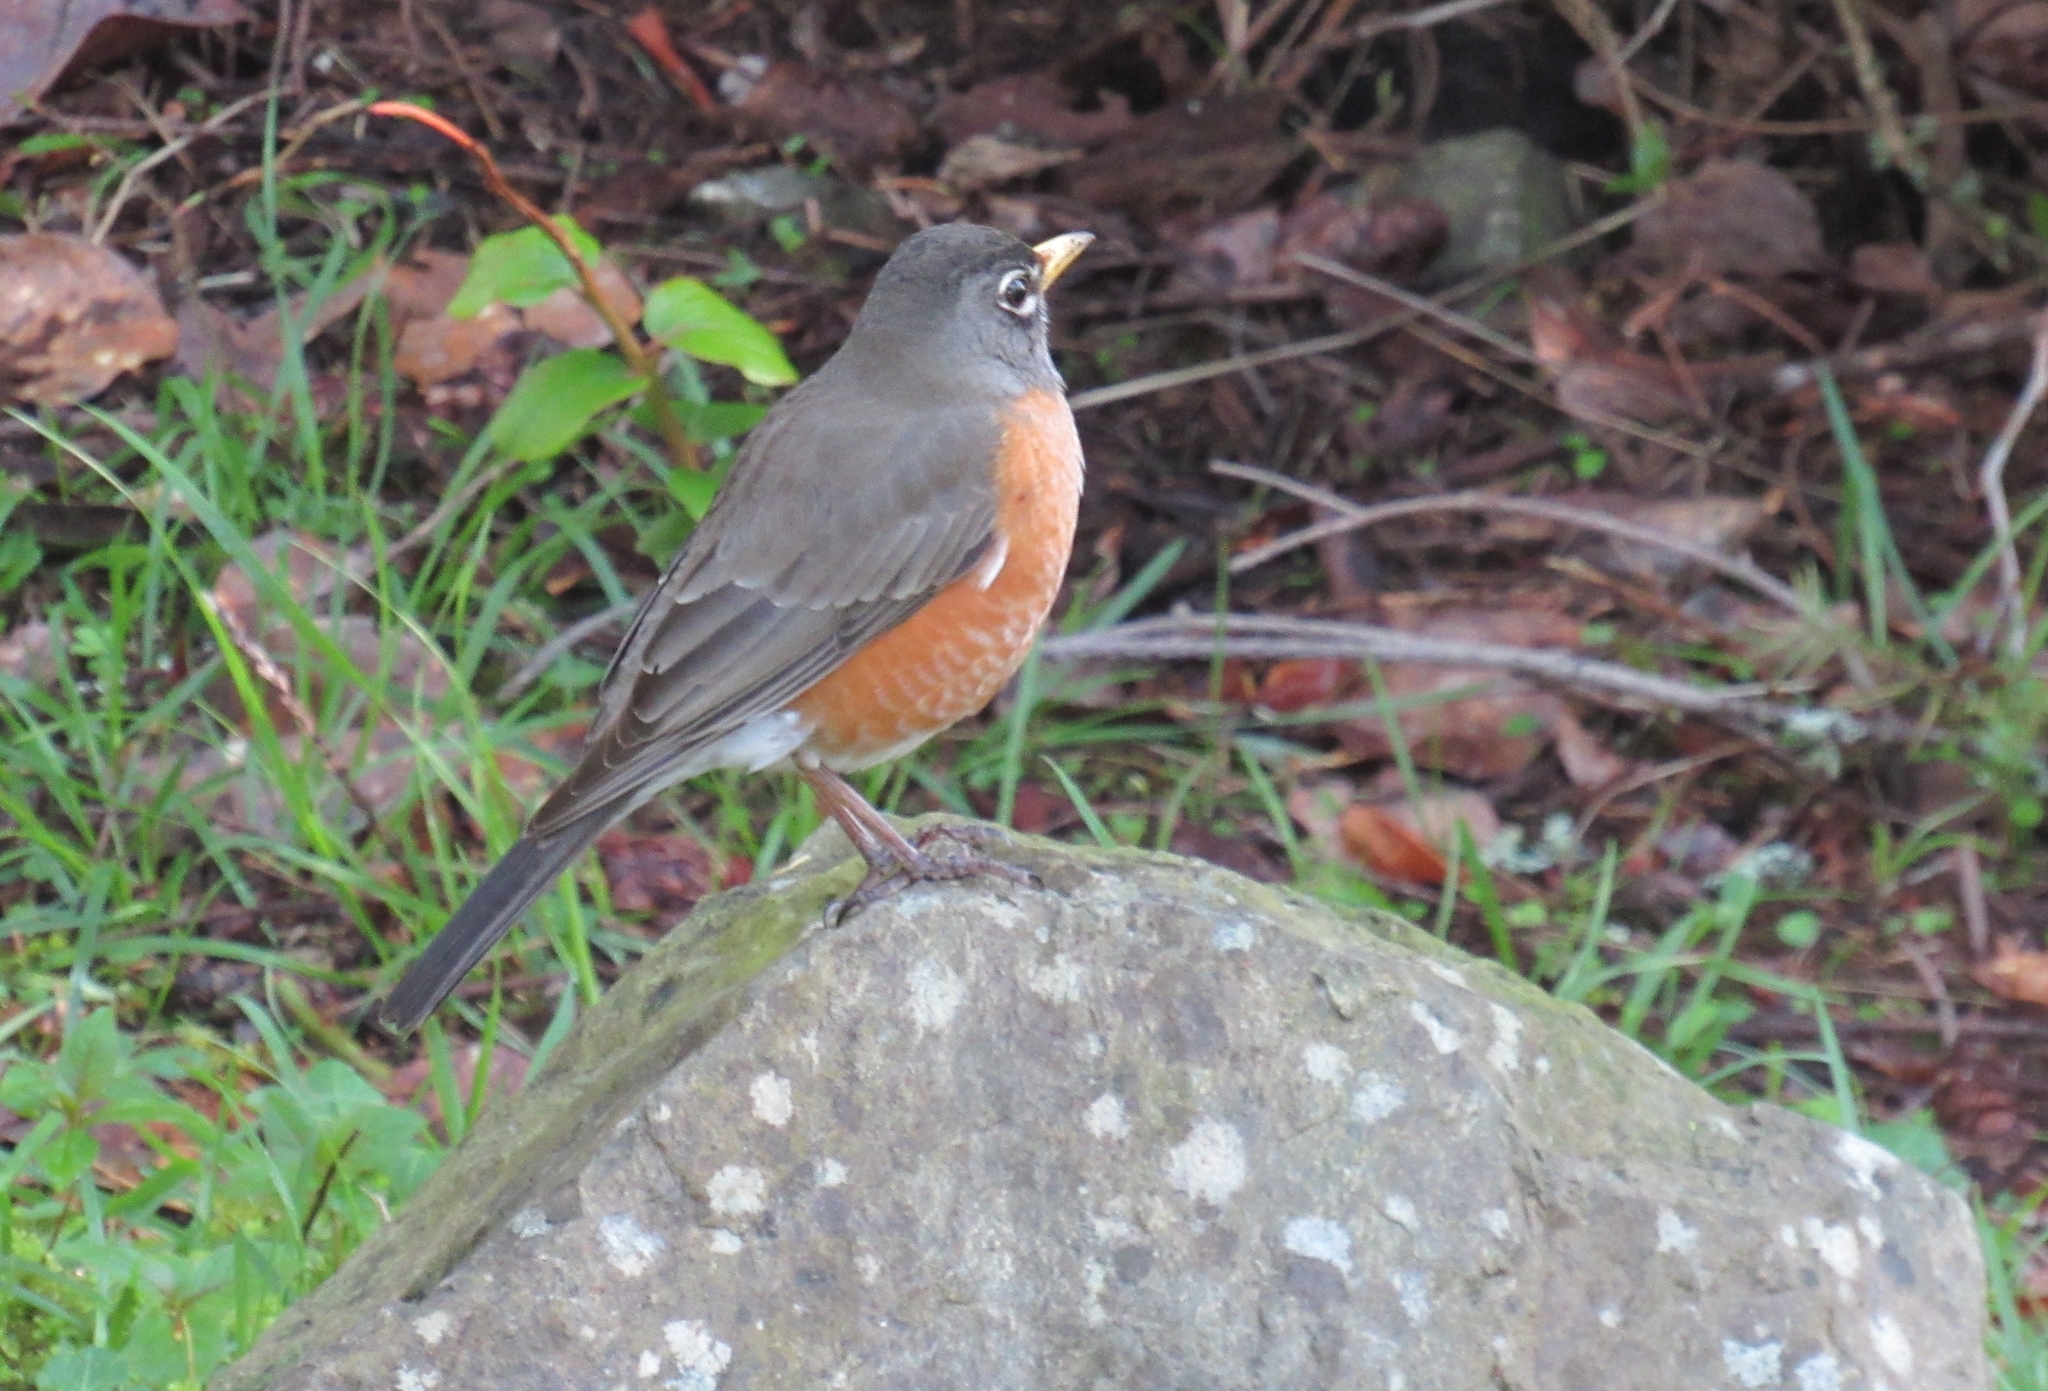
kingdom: Animalia
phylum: Chordata
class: Aves
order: Passeriformes
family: Turdidae
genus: Turdus
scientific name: Turdus migratorius
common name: American robin
